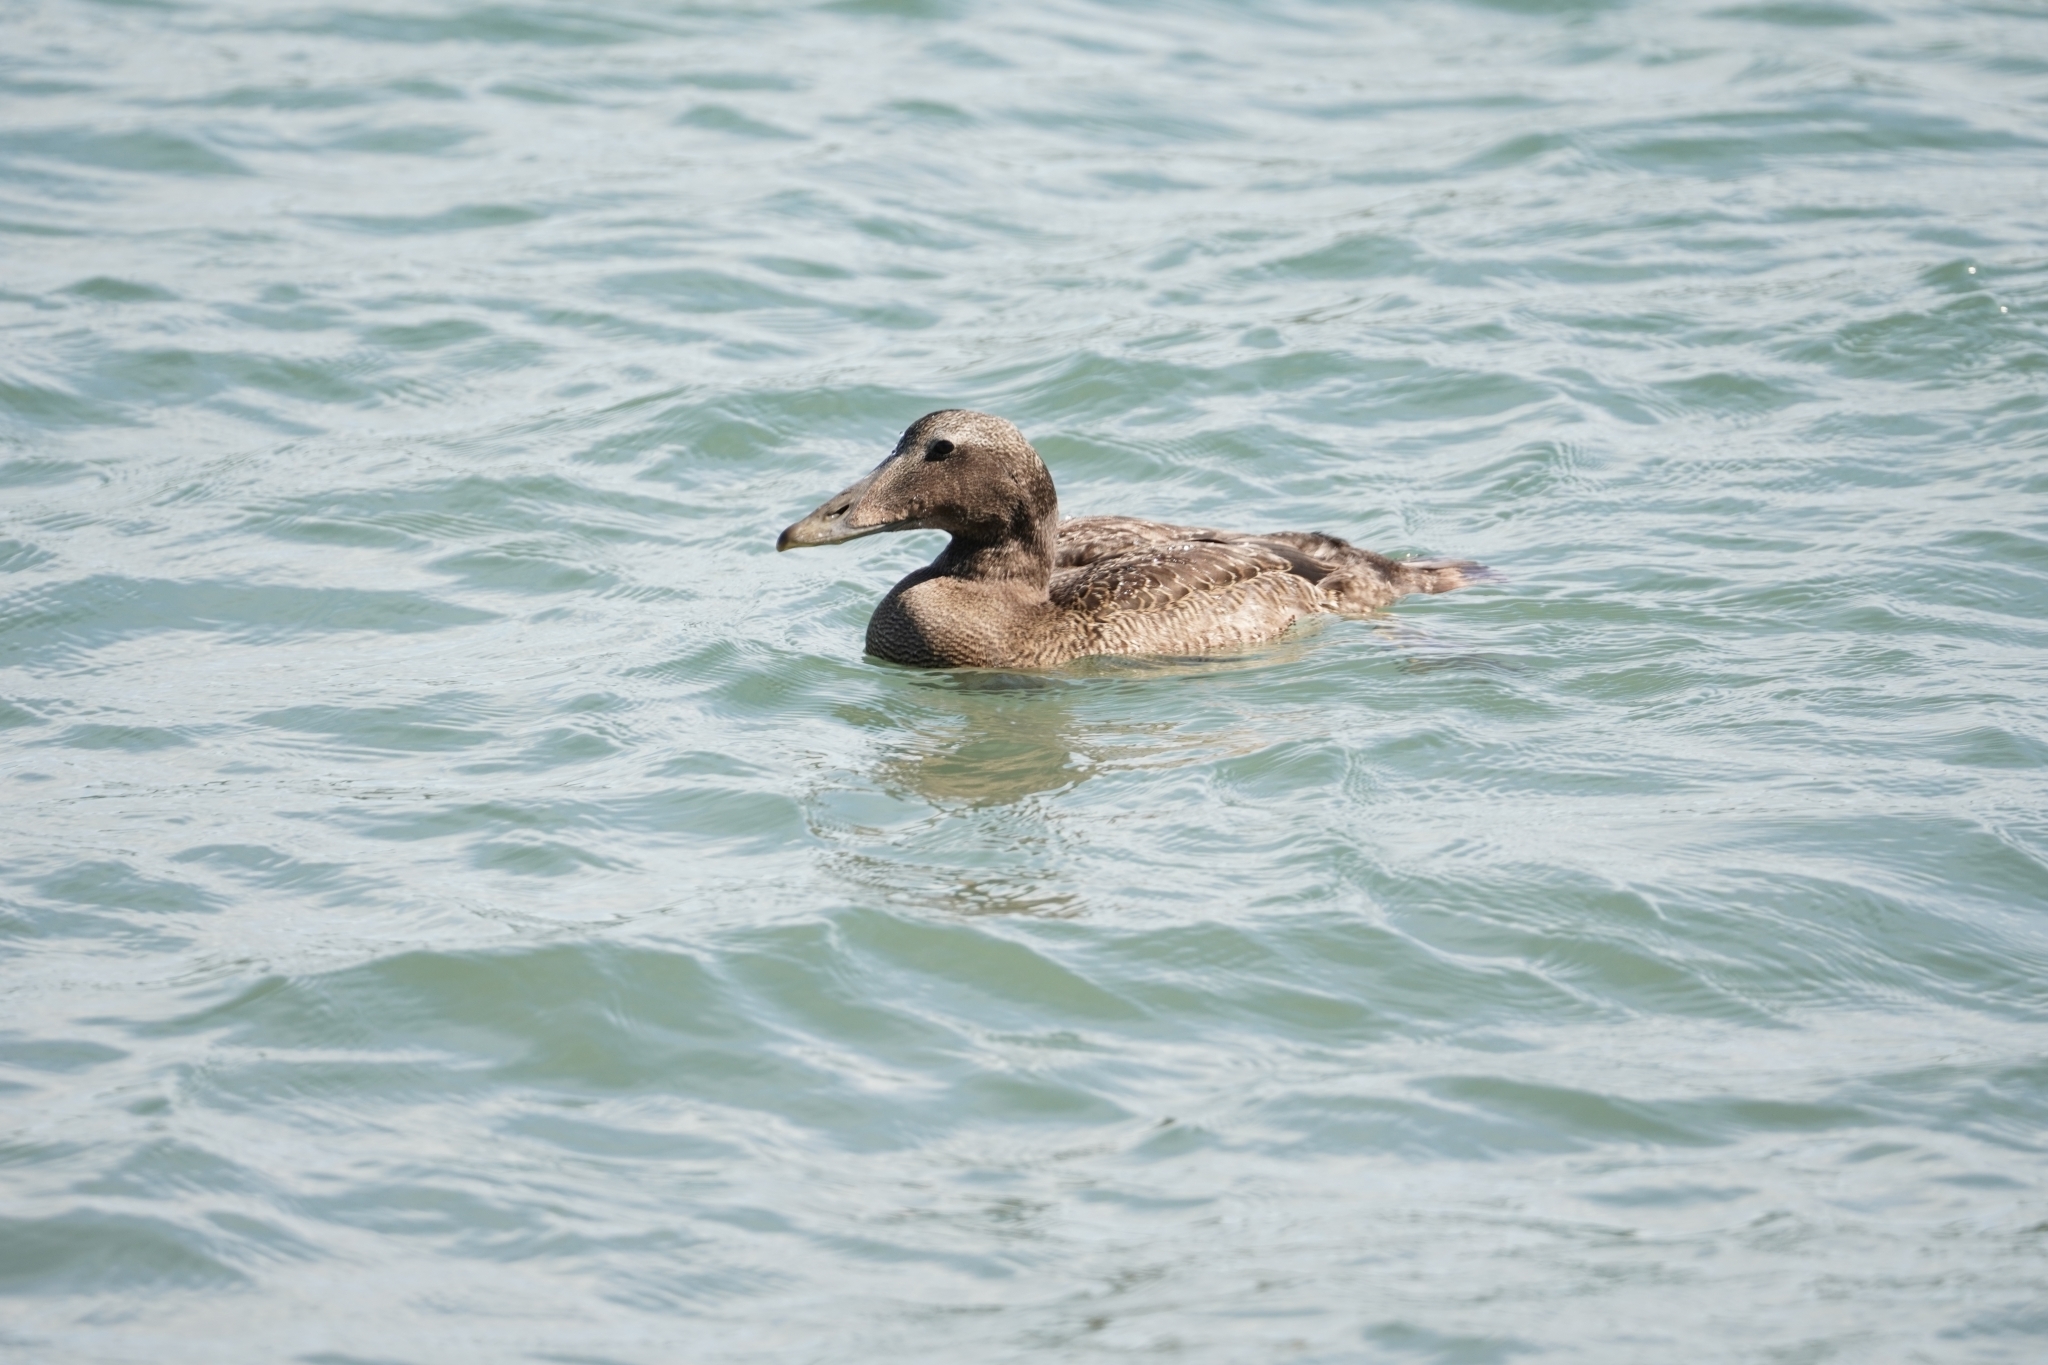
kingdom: Animalia
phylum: Chordata
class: Aves
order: Anseriformes
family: Anatidae
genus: Somateria
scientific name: Somateria mollissima
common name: Common eider
